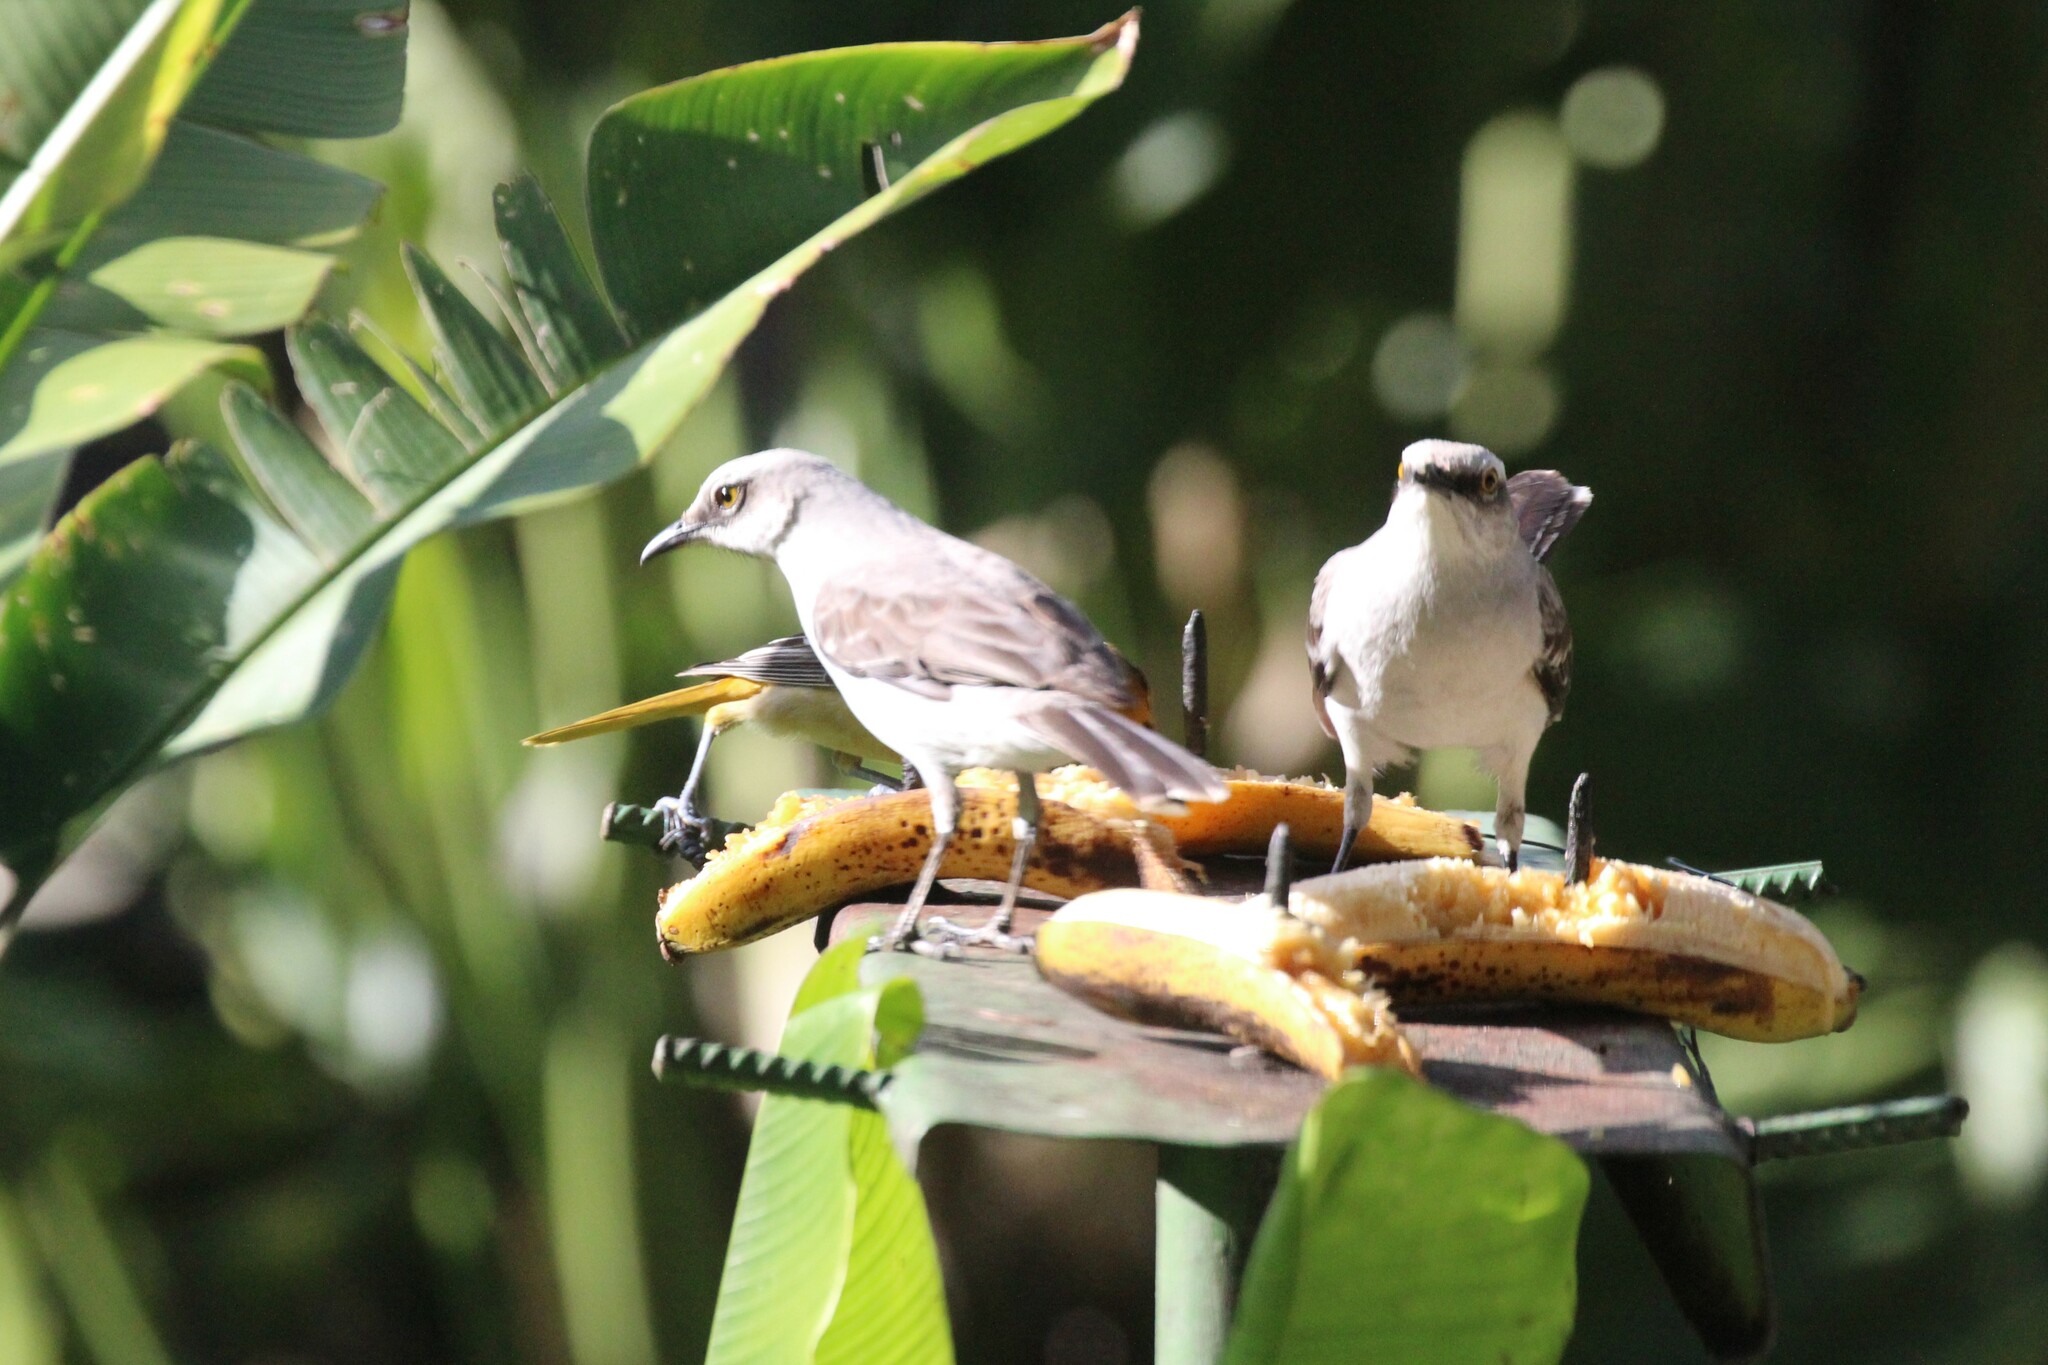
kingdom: Animalia
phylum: Chordata
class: Aves
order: Passeriformes
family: Mimidae
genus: Mimus
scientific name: Mimus gilvus
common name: Tropical mockingbird
